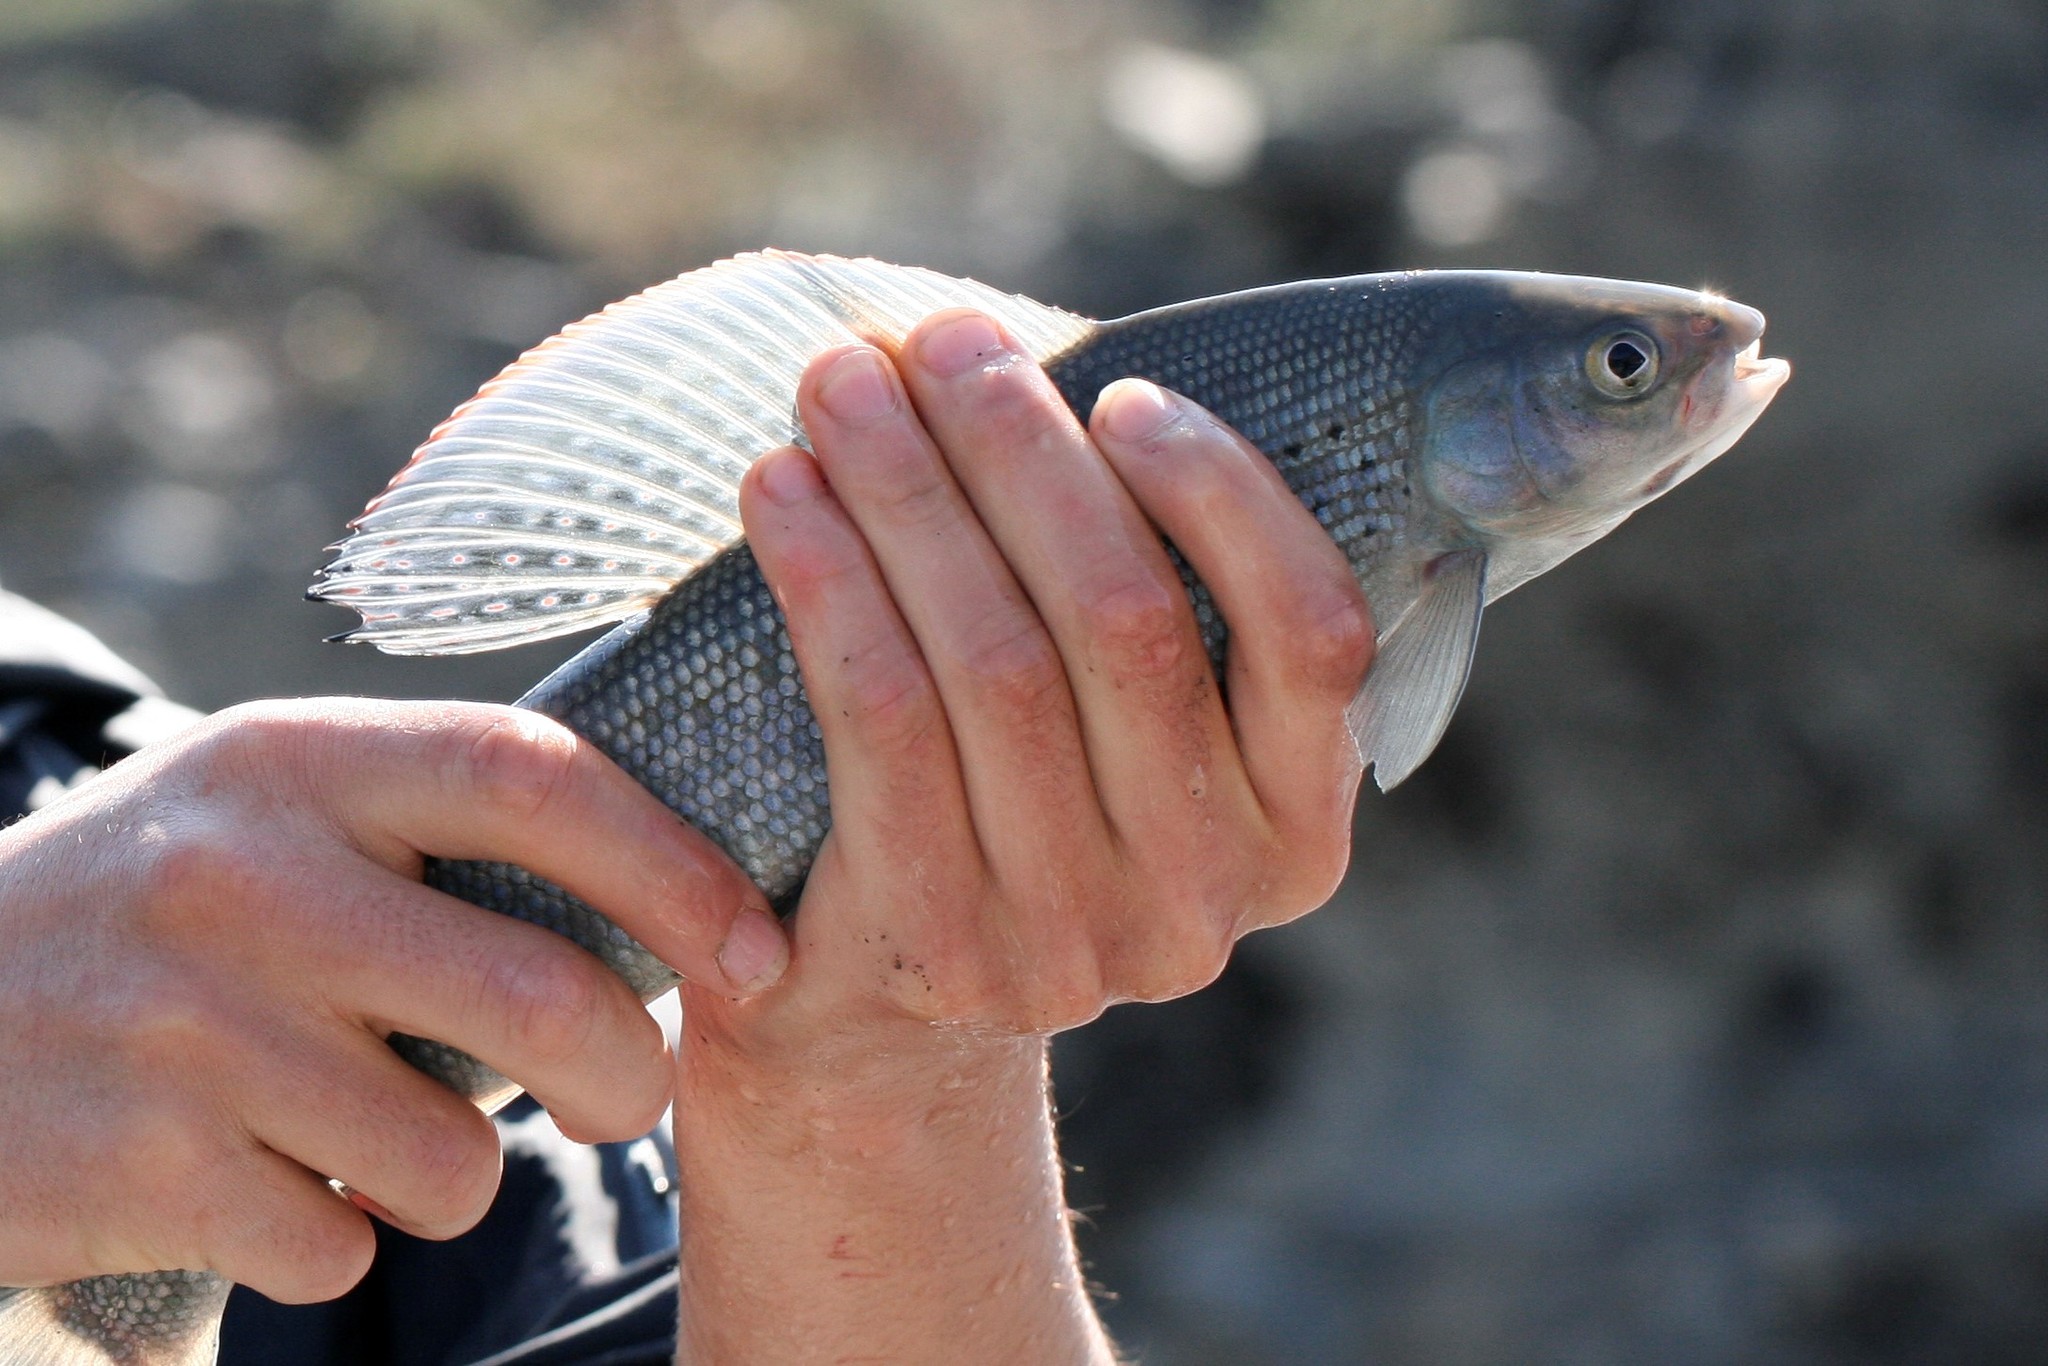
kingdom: Animalia
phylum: Chordata
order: Salmoniformes
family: Salmonidae
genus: Thymallus
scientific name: Thymallus arcticus
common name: Arctic grayling
